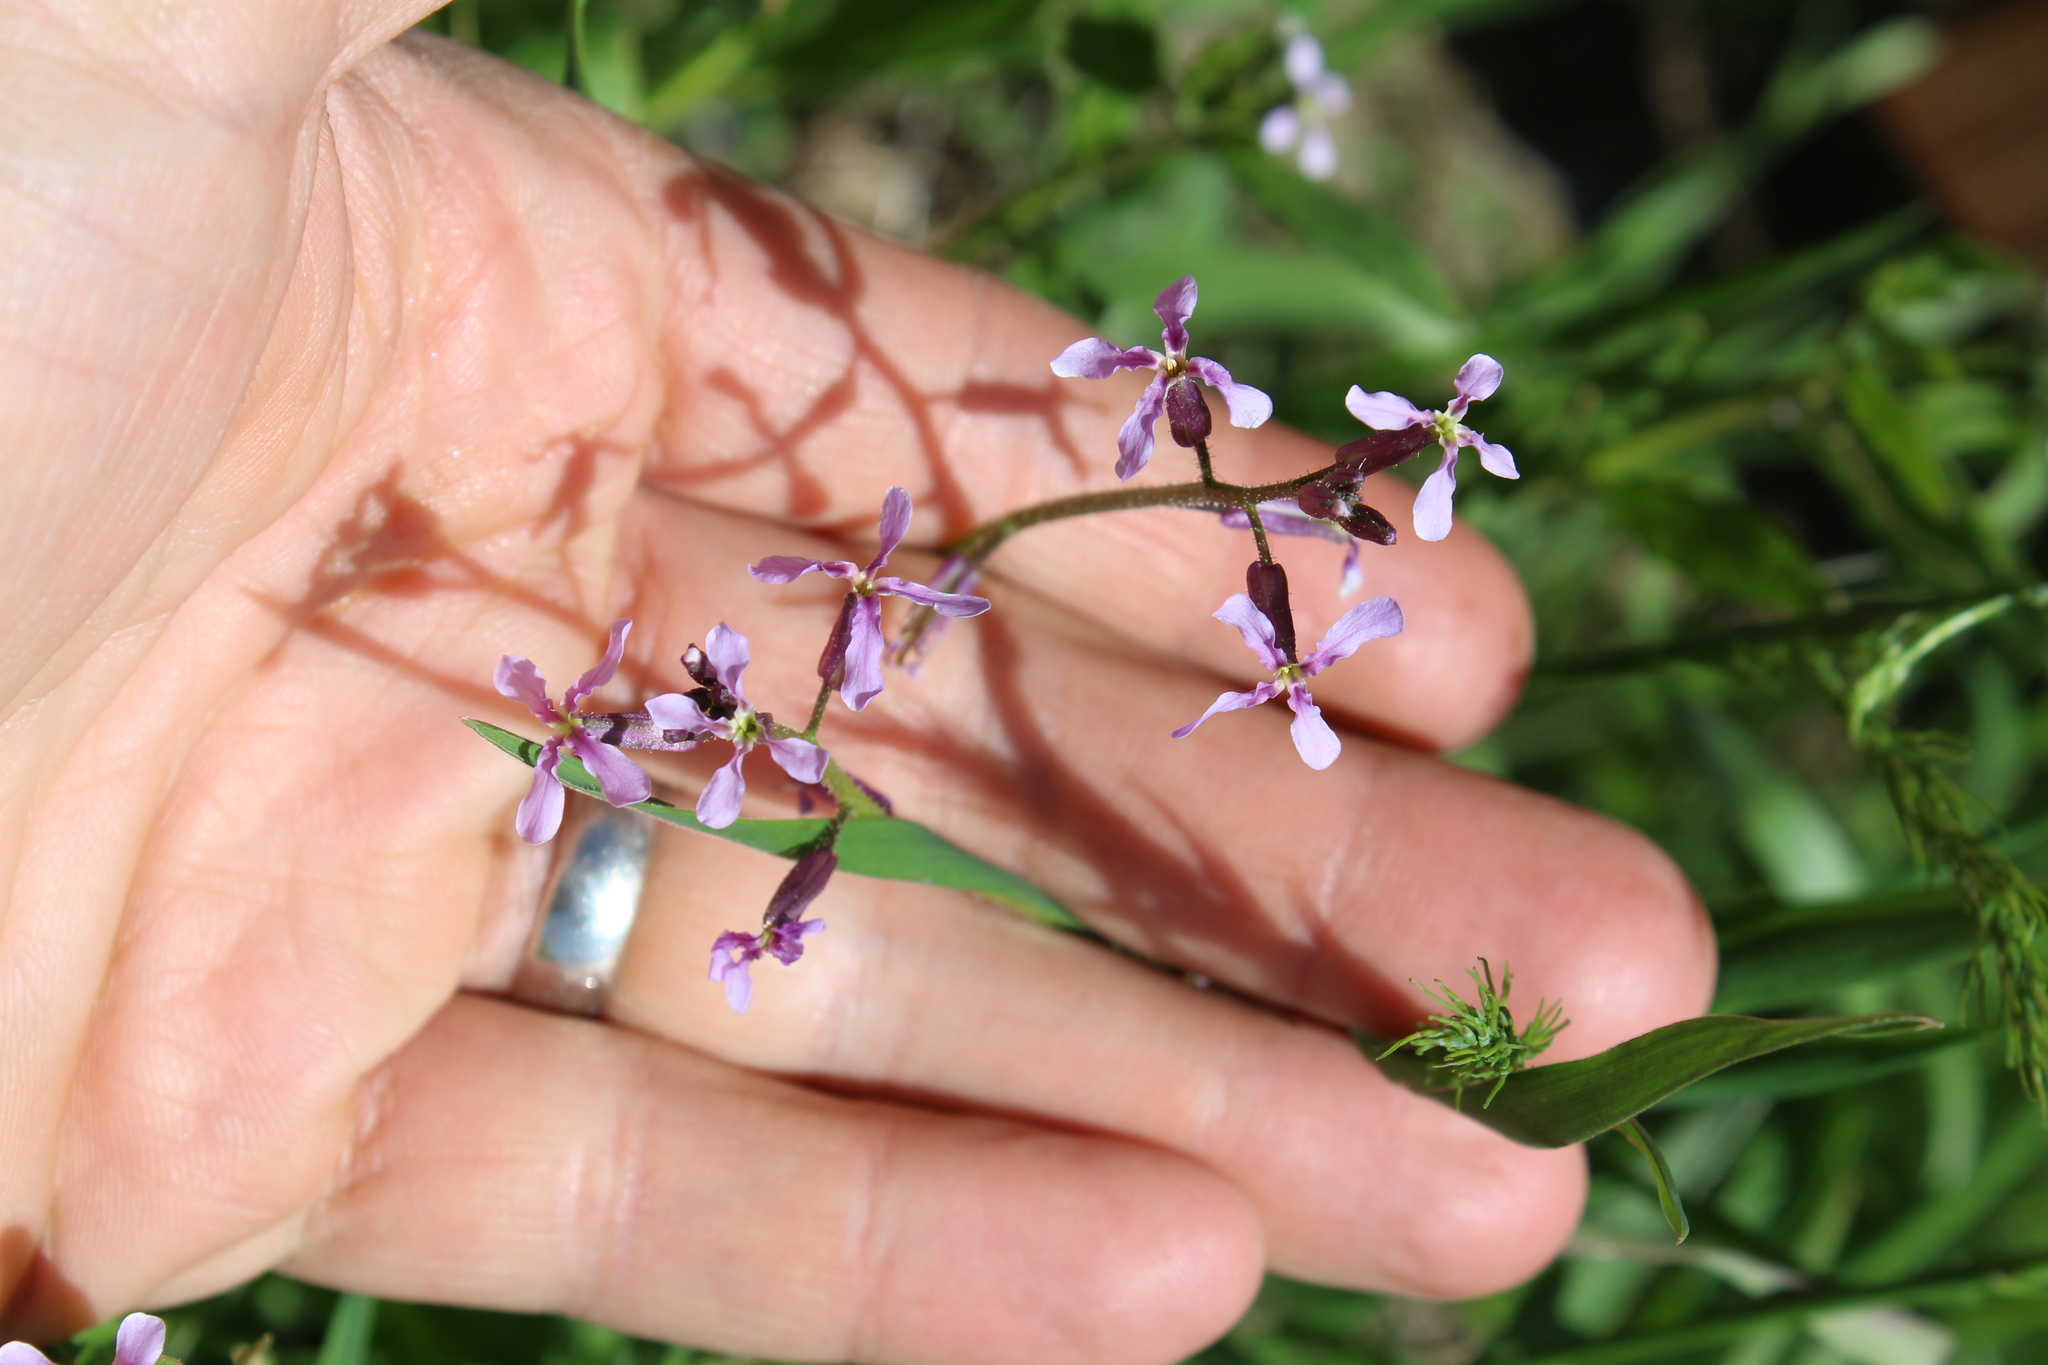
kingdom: Plantae
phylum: Tracheophyta
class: Magnoliopsida
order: Brassicales
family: Brassicaceae
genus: Chorispora
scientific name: Chorispora tenella
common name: Crossflower
